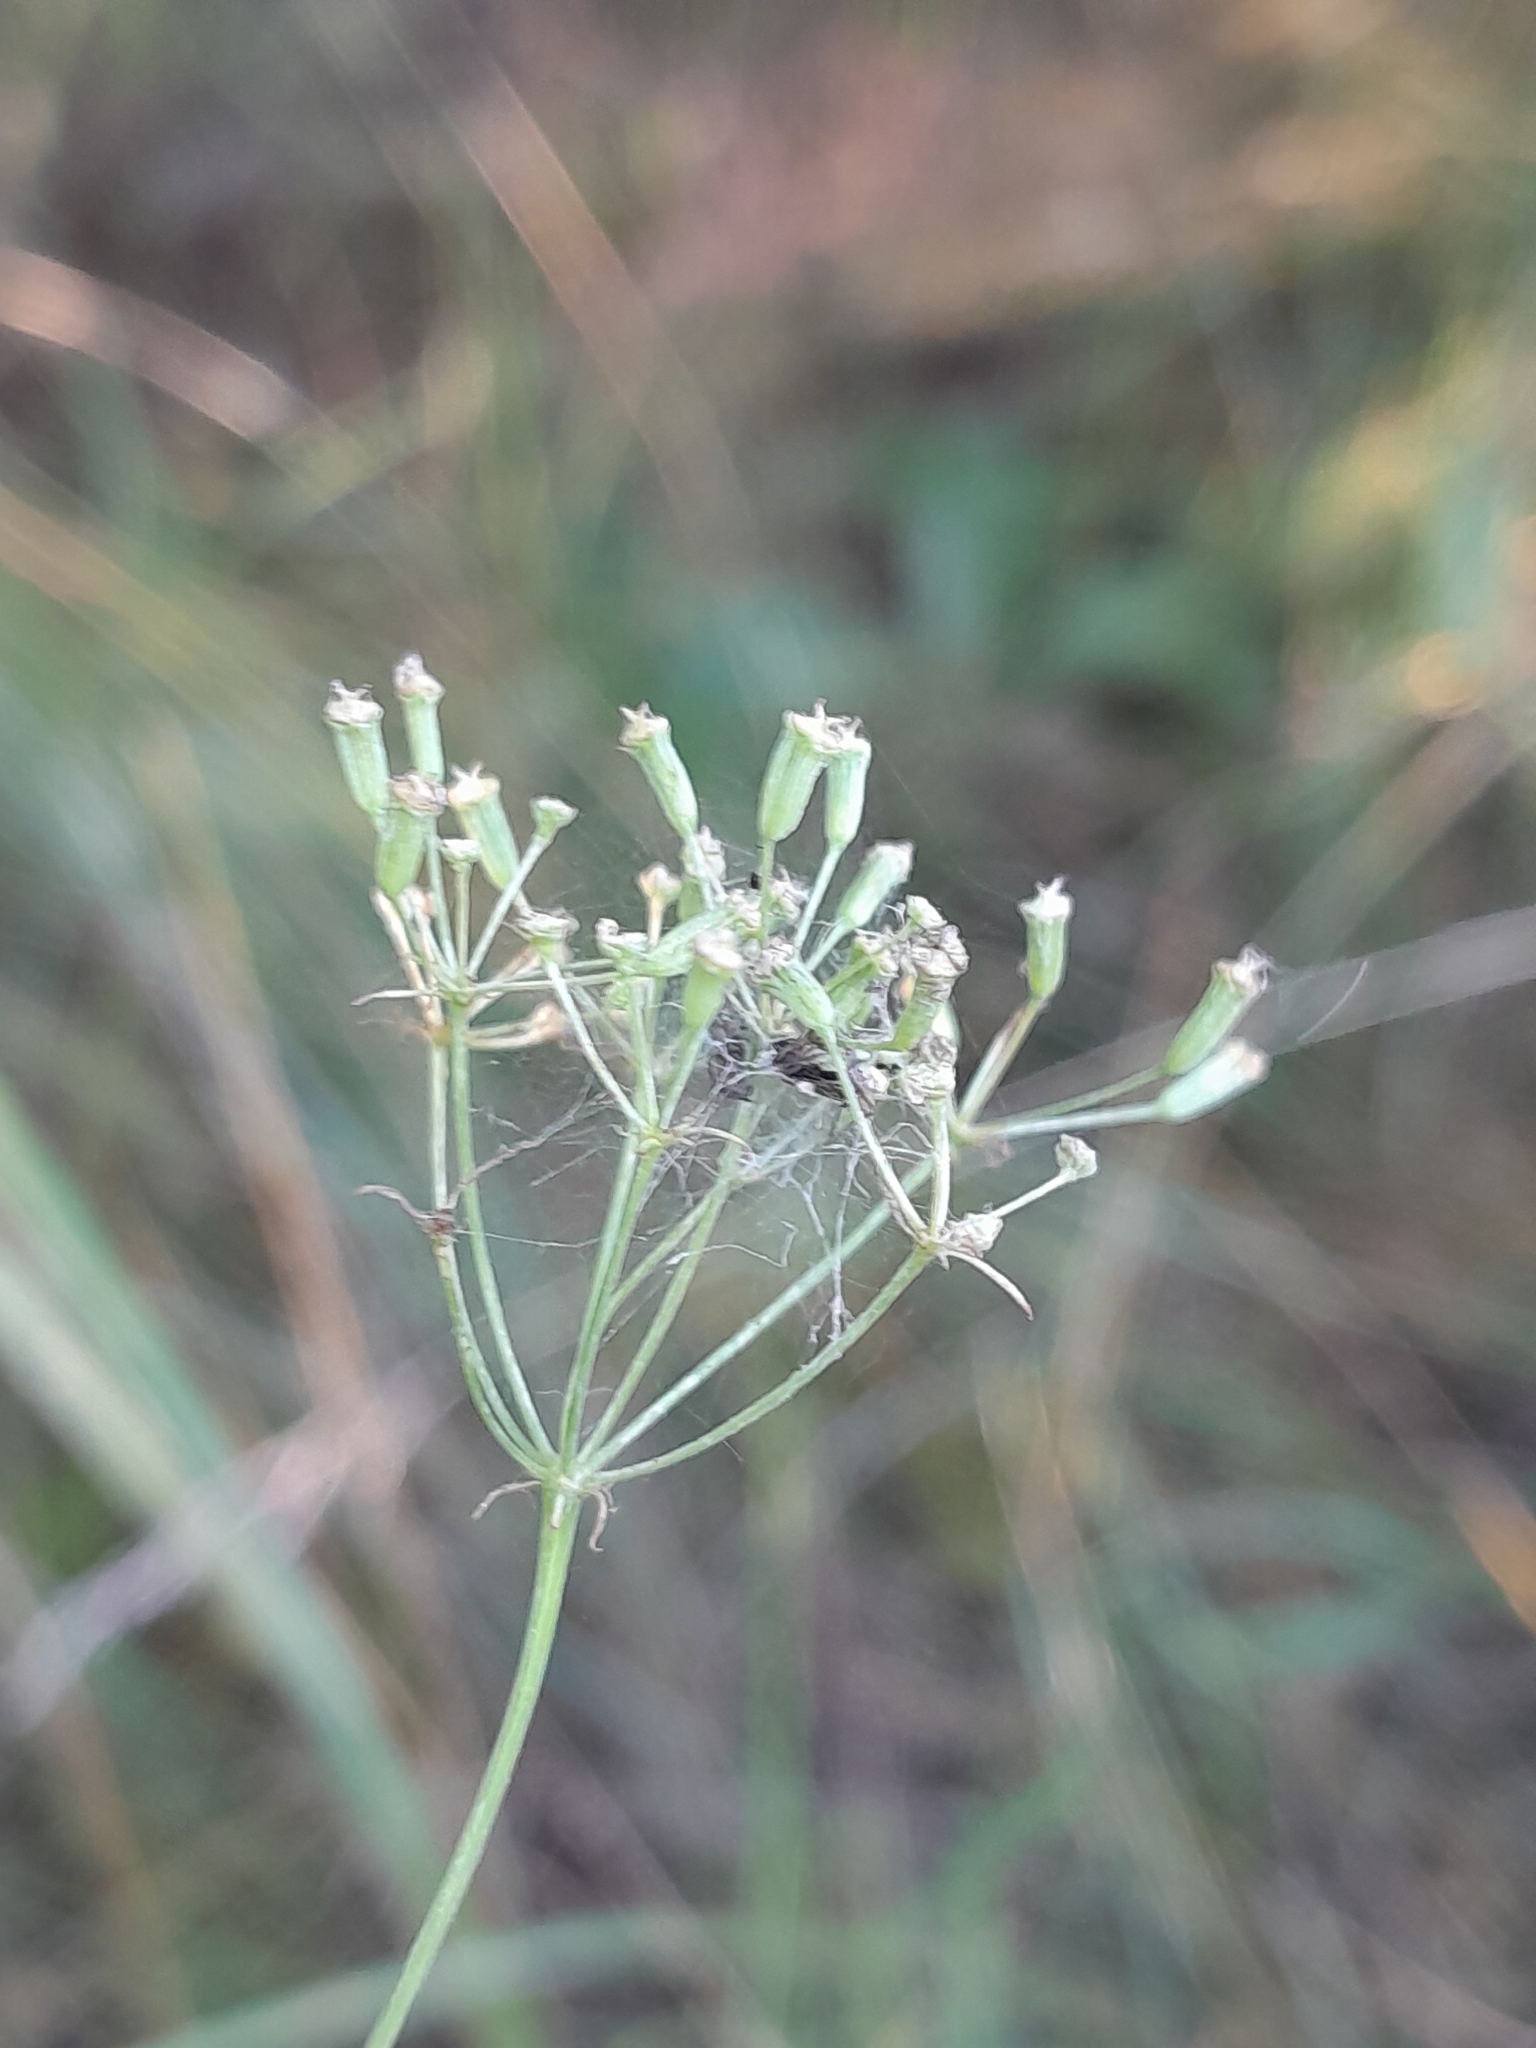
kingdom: Plantae
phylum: Tracheophyta
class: Magnoliopsida
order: Apiales
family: Apiaceae
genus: Falcaria
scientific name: Falcaria vulgaris
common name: Longleaf
